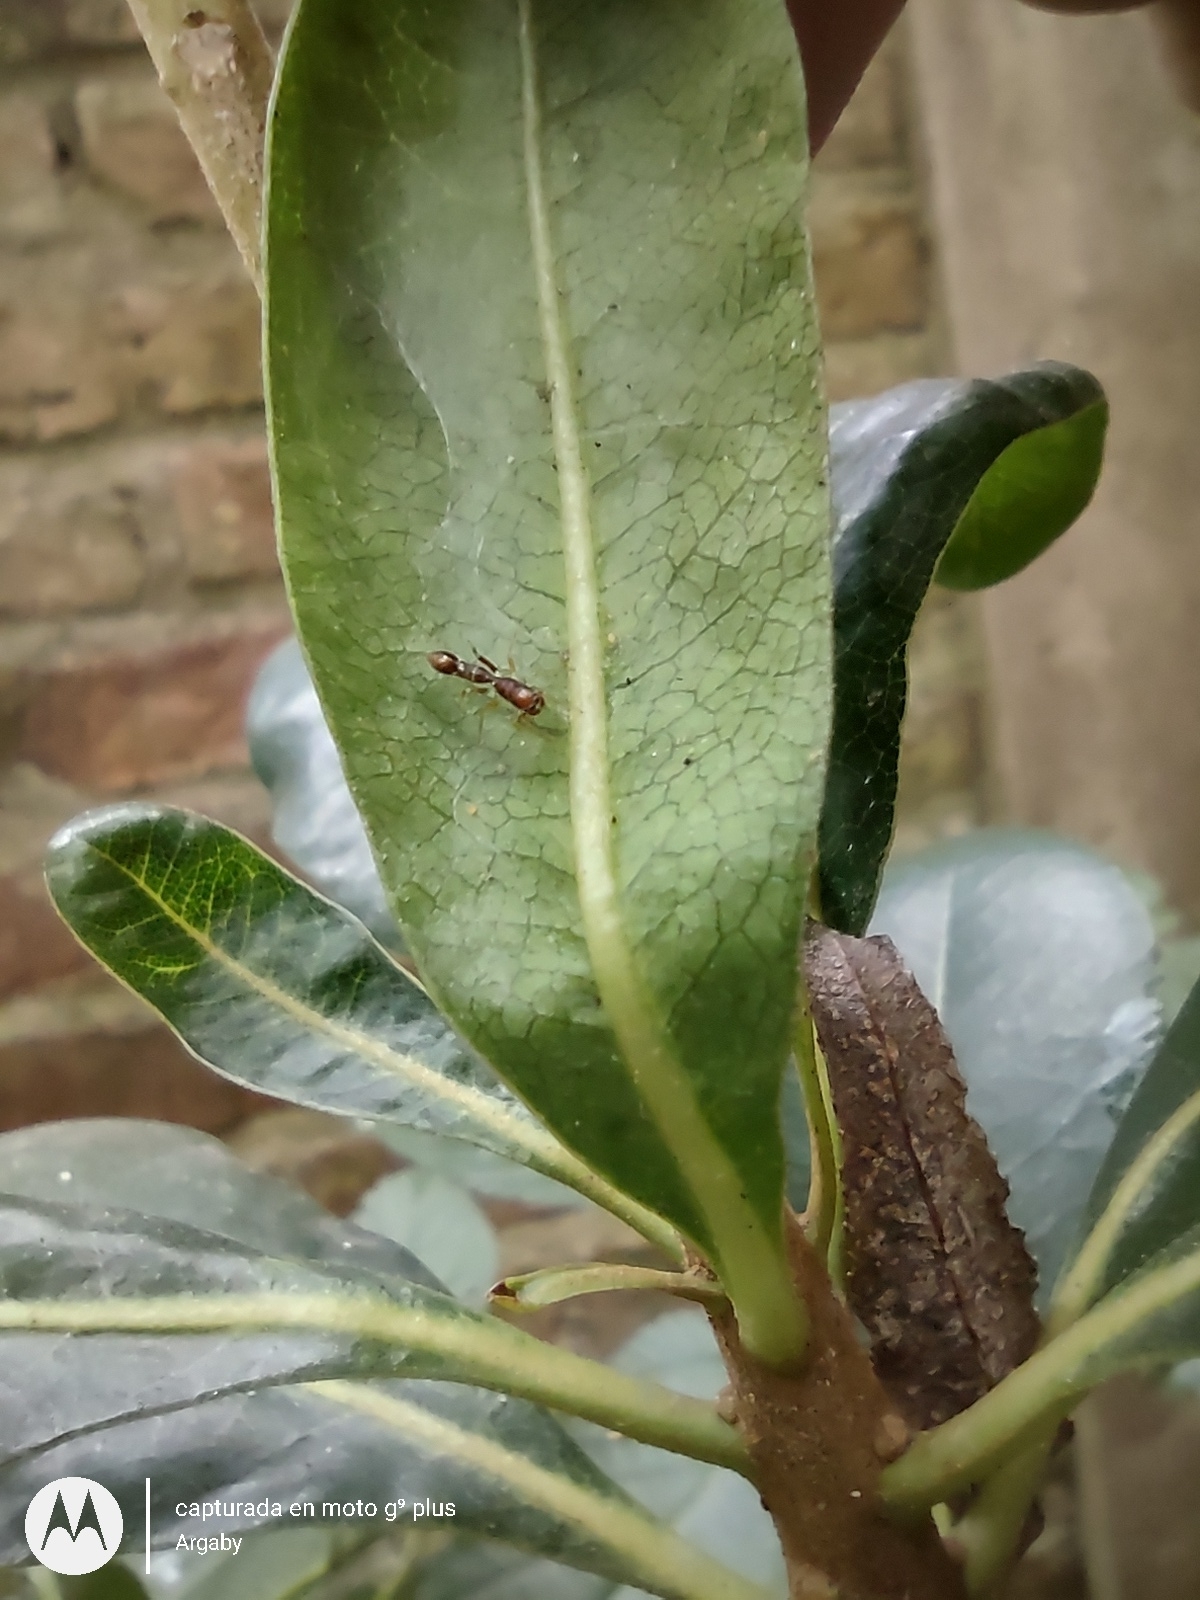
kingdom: Animalia
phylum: Arthropoda
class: Arachnida
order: Araneae
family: Salticidae
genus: Synemosyna
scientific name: Synemosyna aurantiaca
